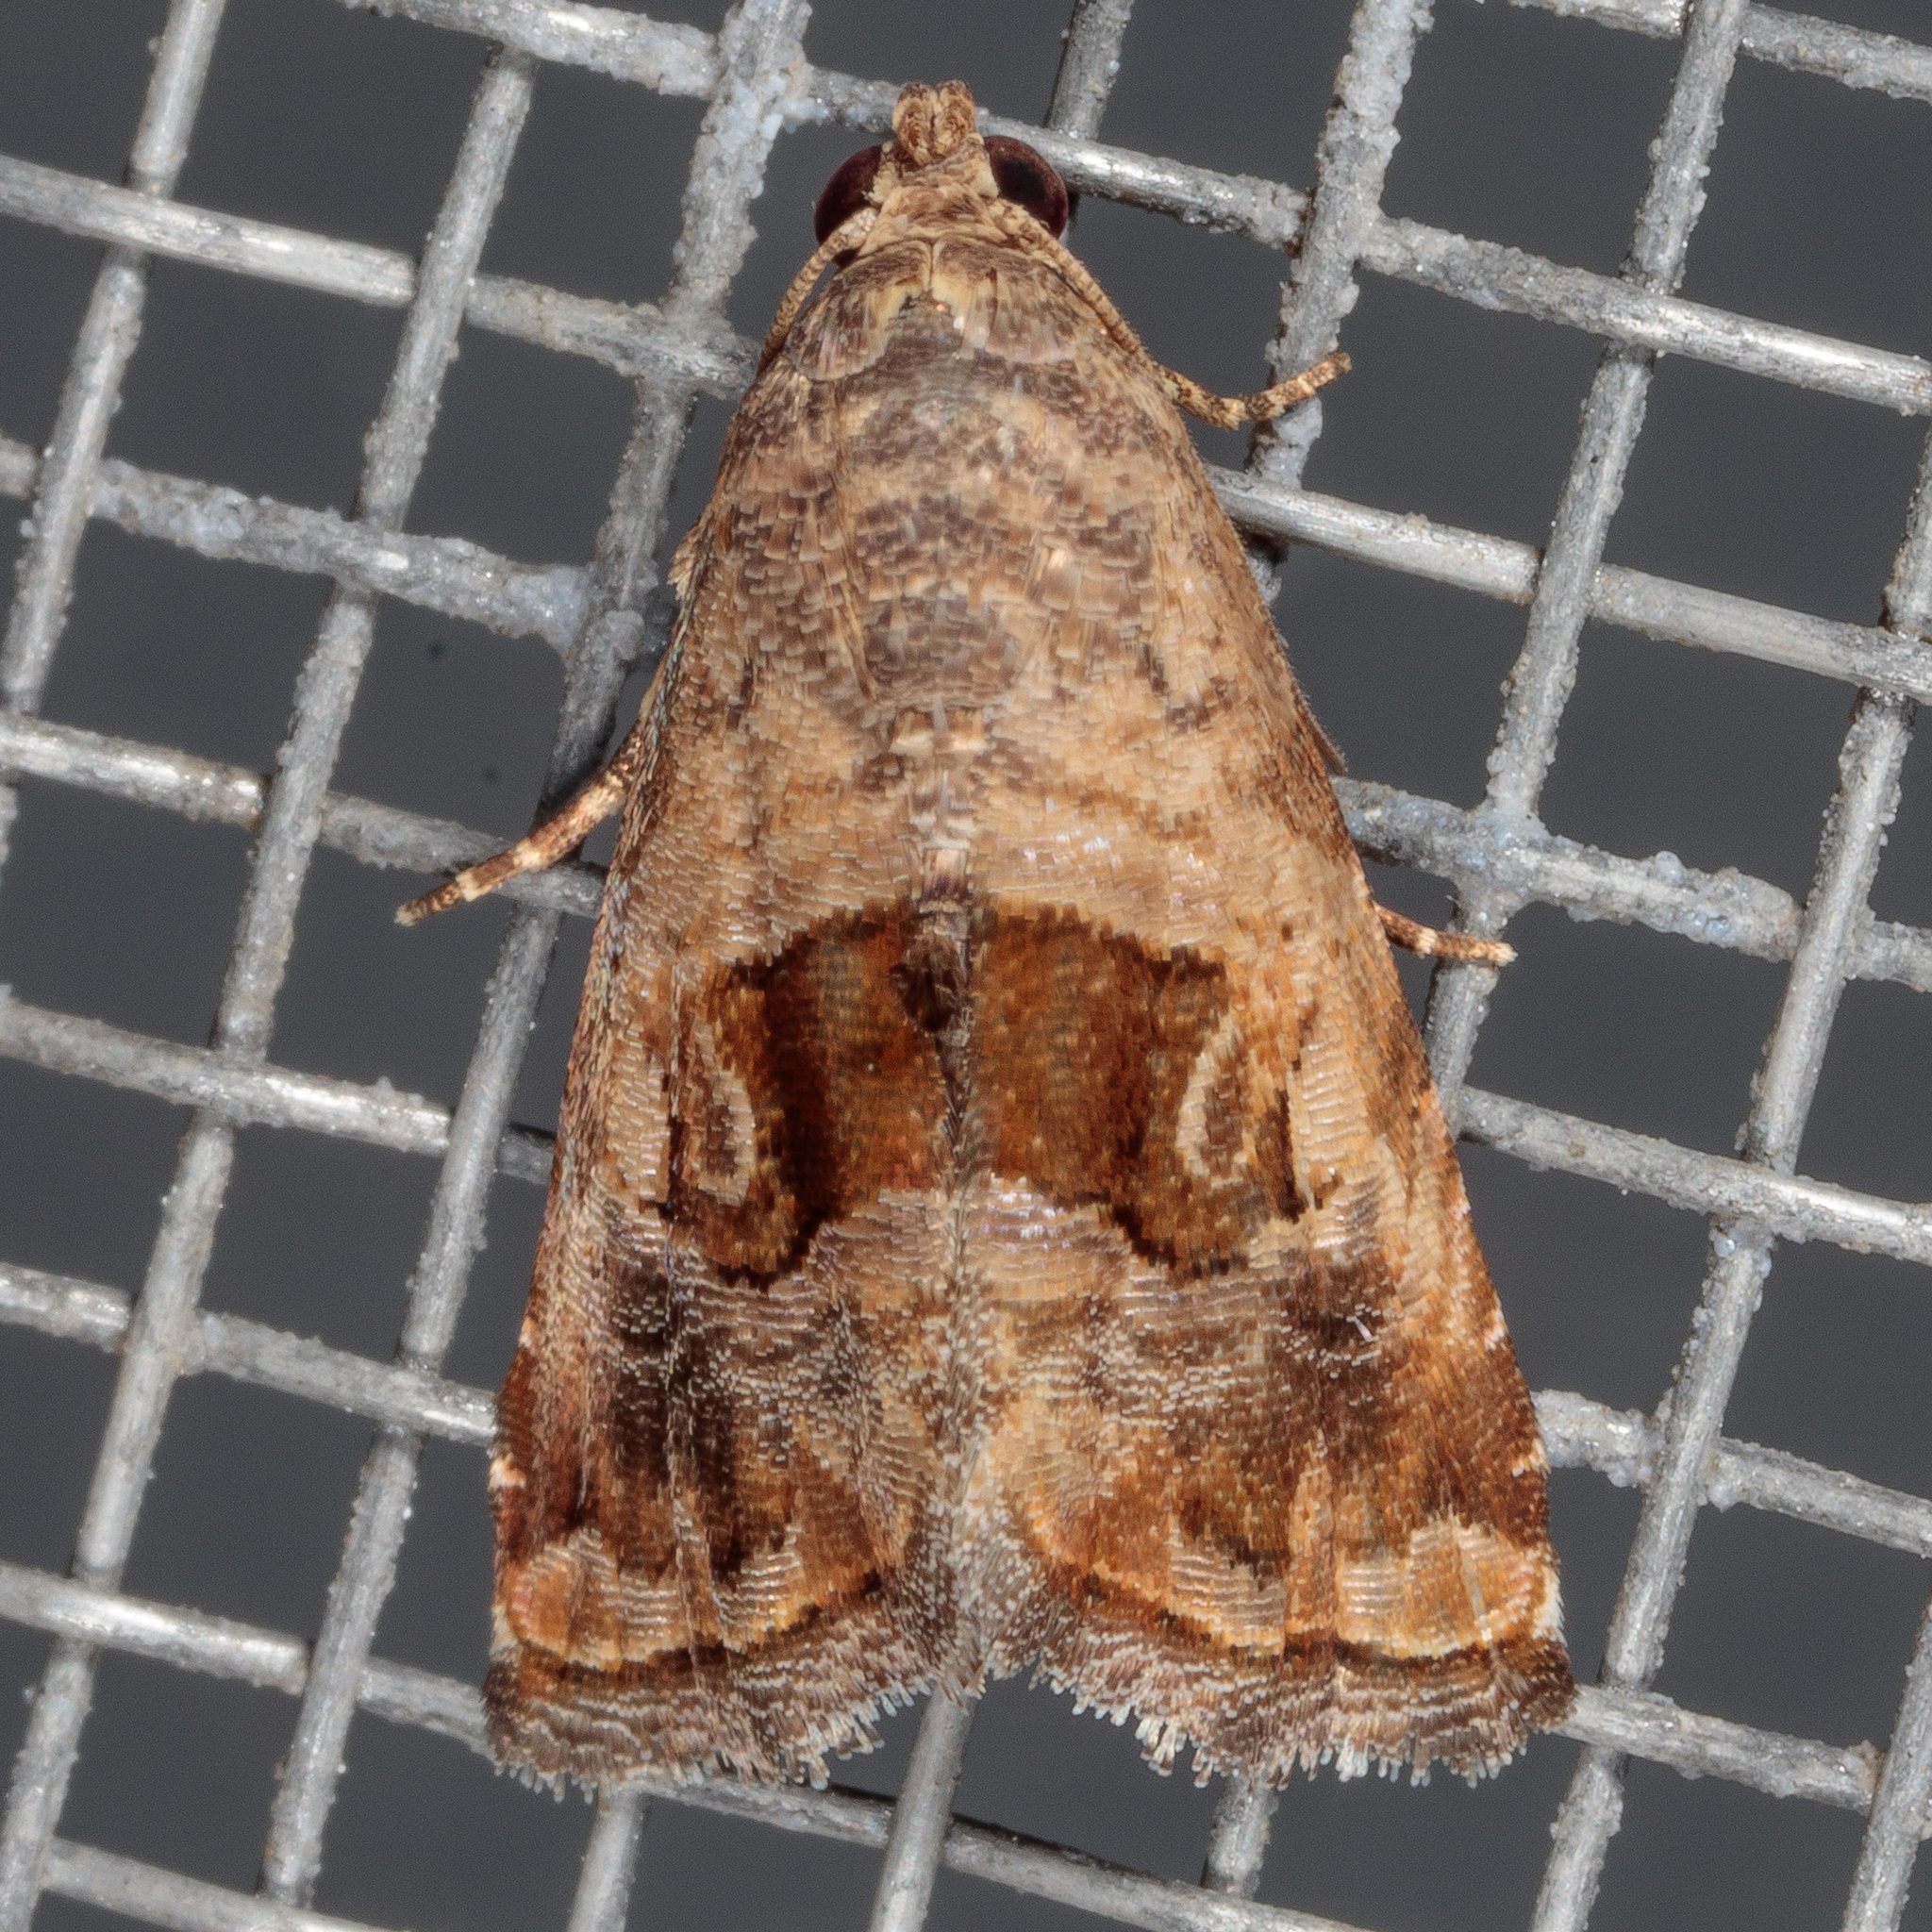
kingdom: Animalia
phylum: Arthropoda
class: Insecta
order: Lepidoptera
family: Noctuidae
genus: Tripudia
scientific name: Tripudia quadrifera
